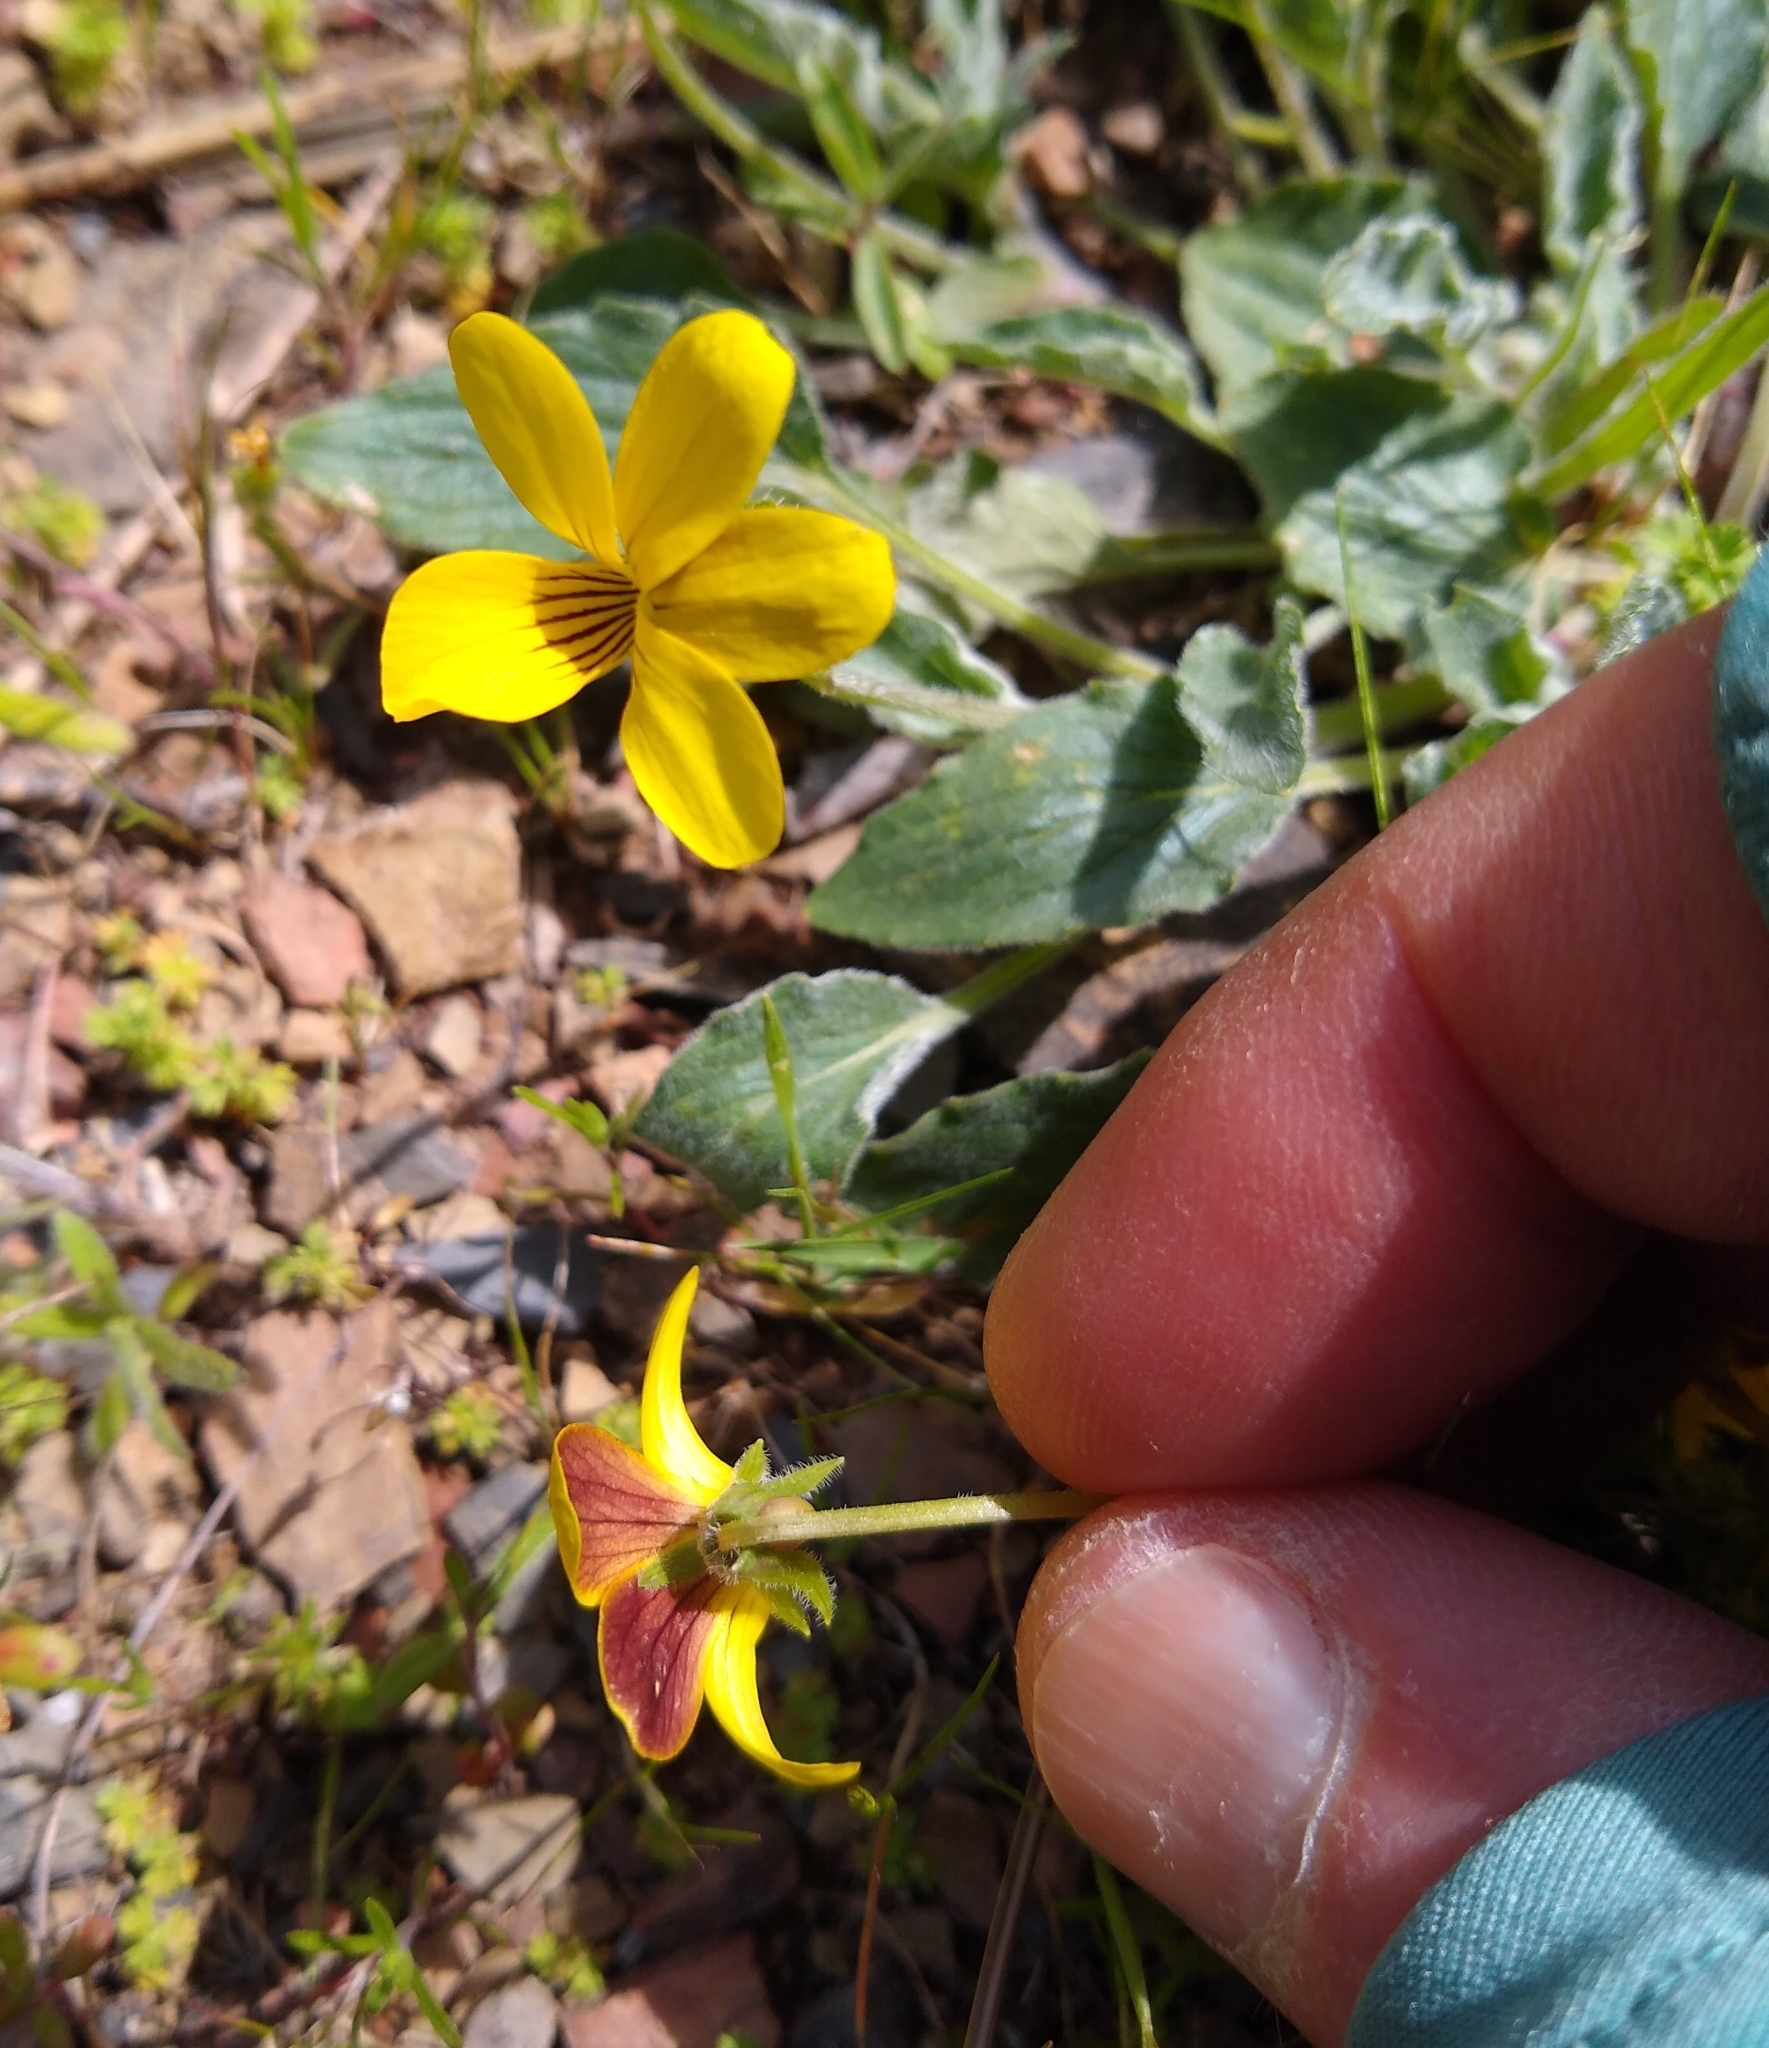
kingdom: Plantae
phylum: Tracheophyta
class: Magnoliopsida
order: Malpighiales
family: Violaceae
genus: Viola
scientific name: Viola purpurea
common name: Pine violet
